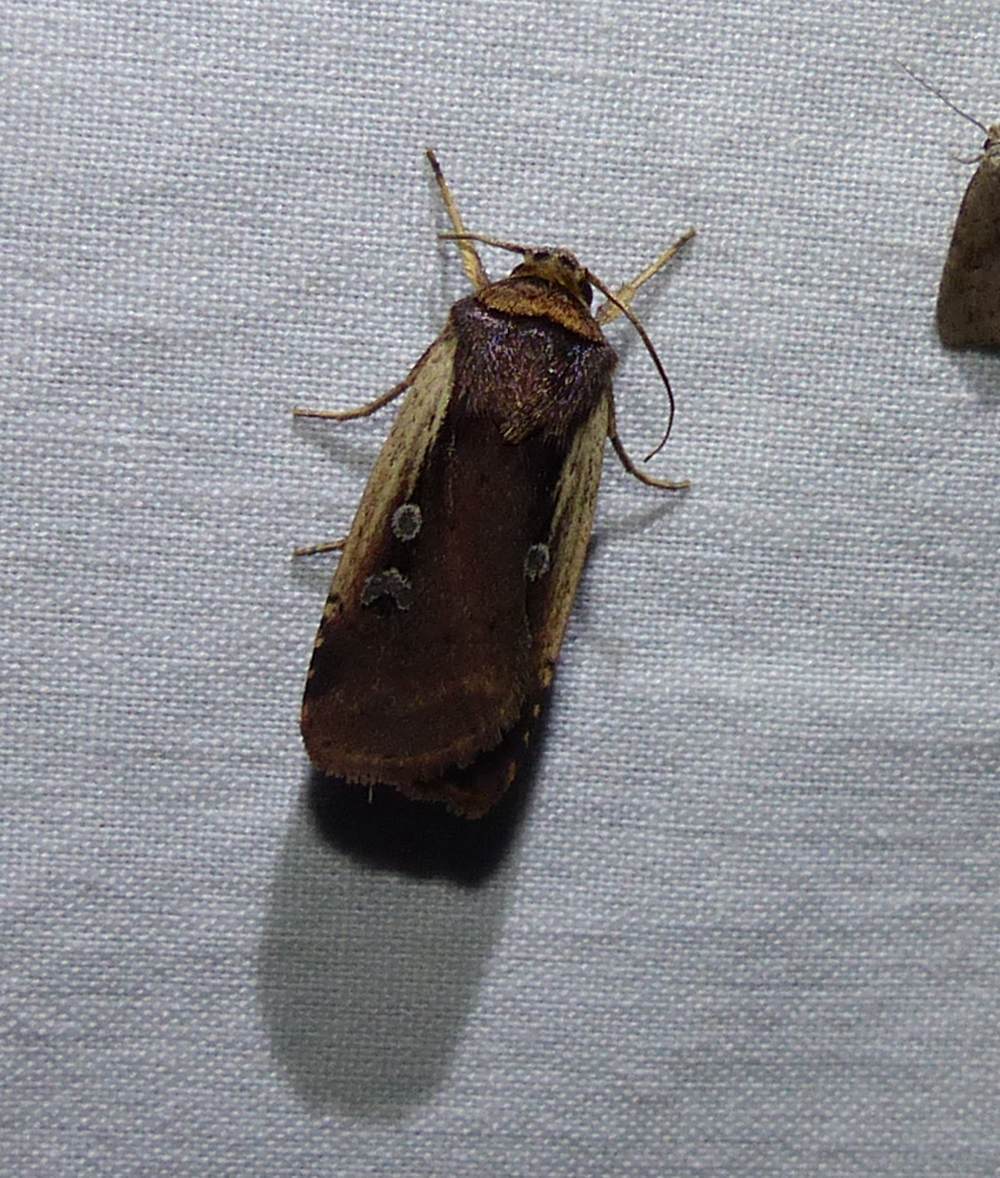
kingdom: Animalia
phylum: Arthropoda
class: Insecta
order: Lepidoptera
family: Noctuidae
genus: Ochropleura
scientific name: Ochropleura implecta
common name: Flame-shouldered dart
